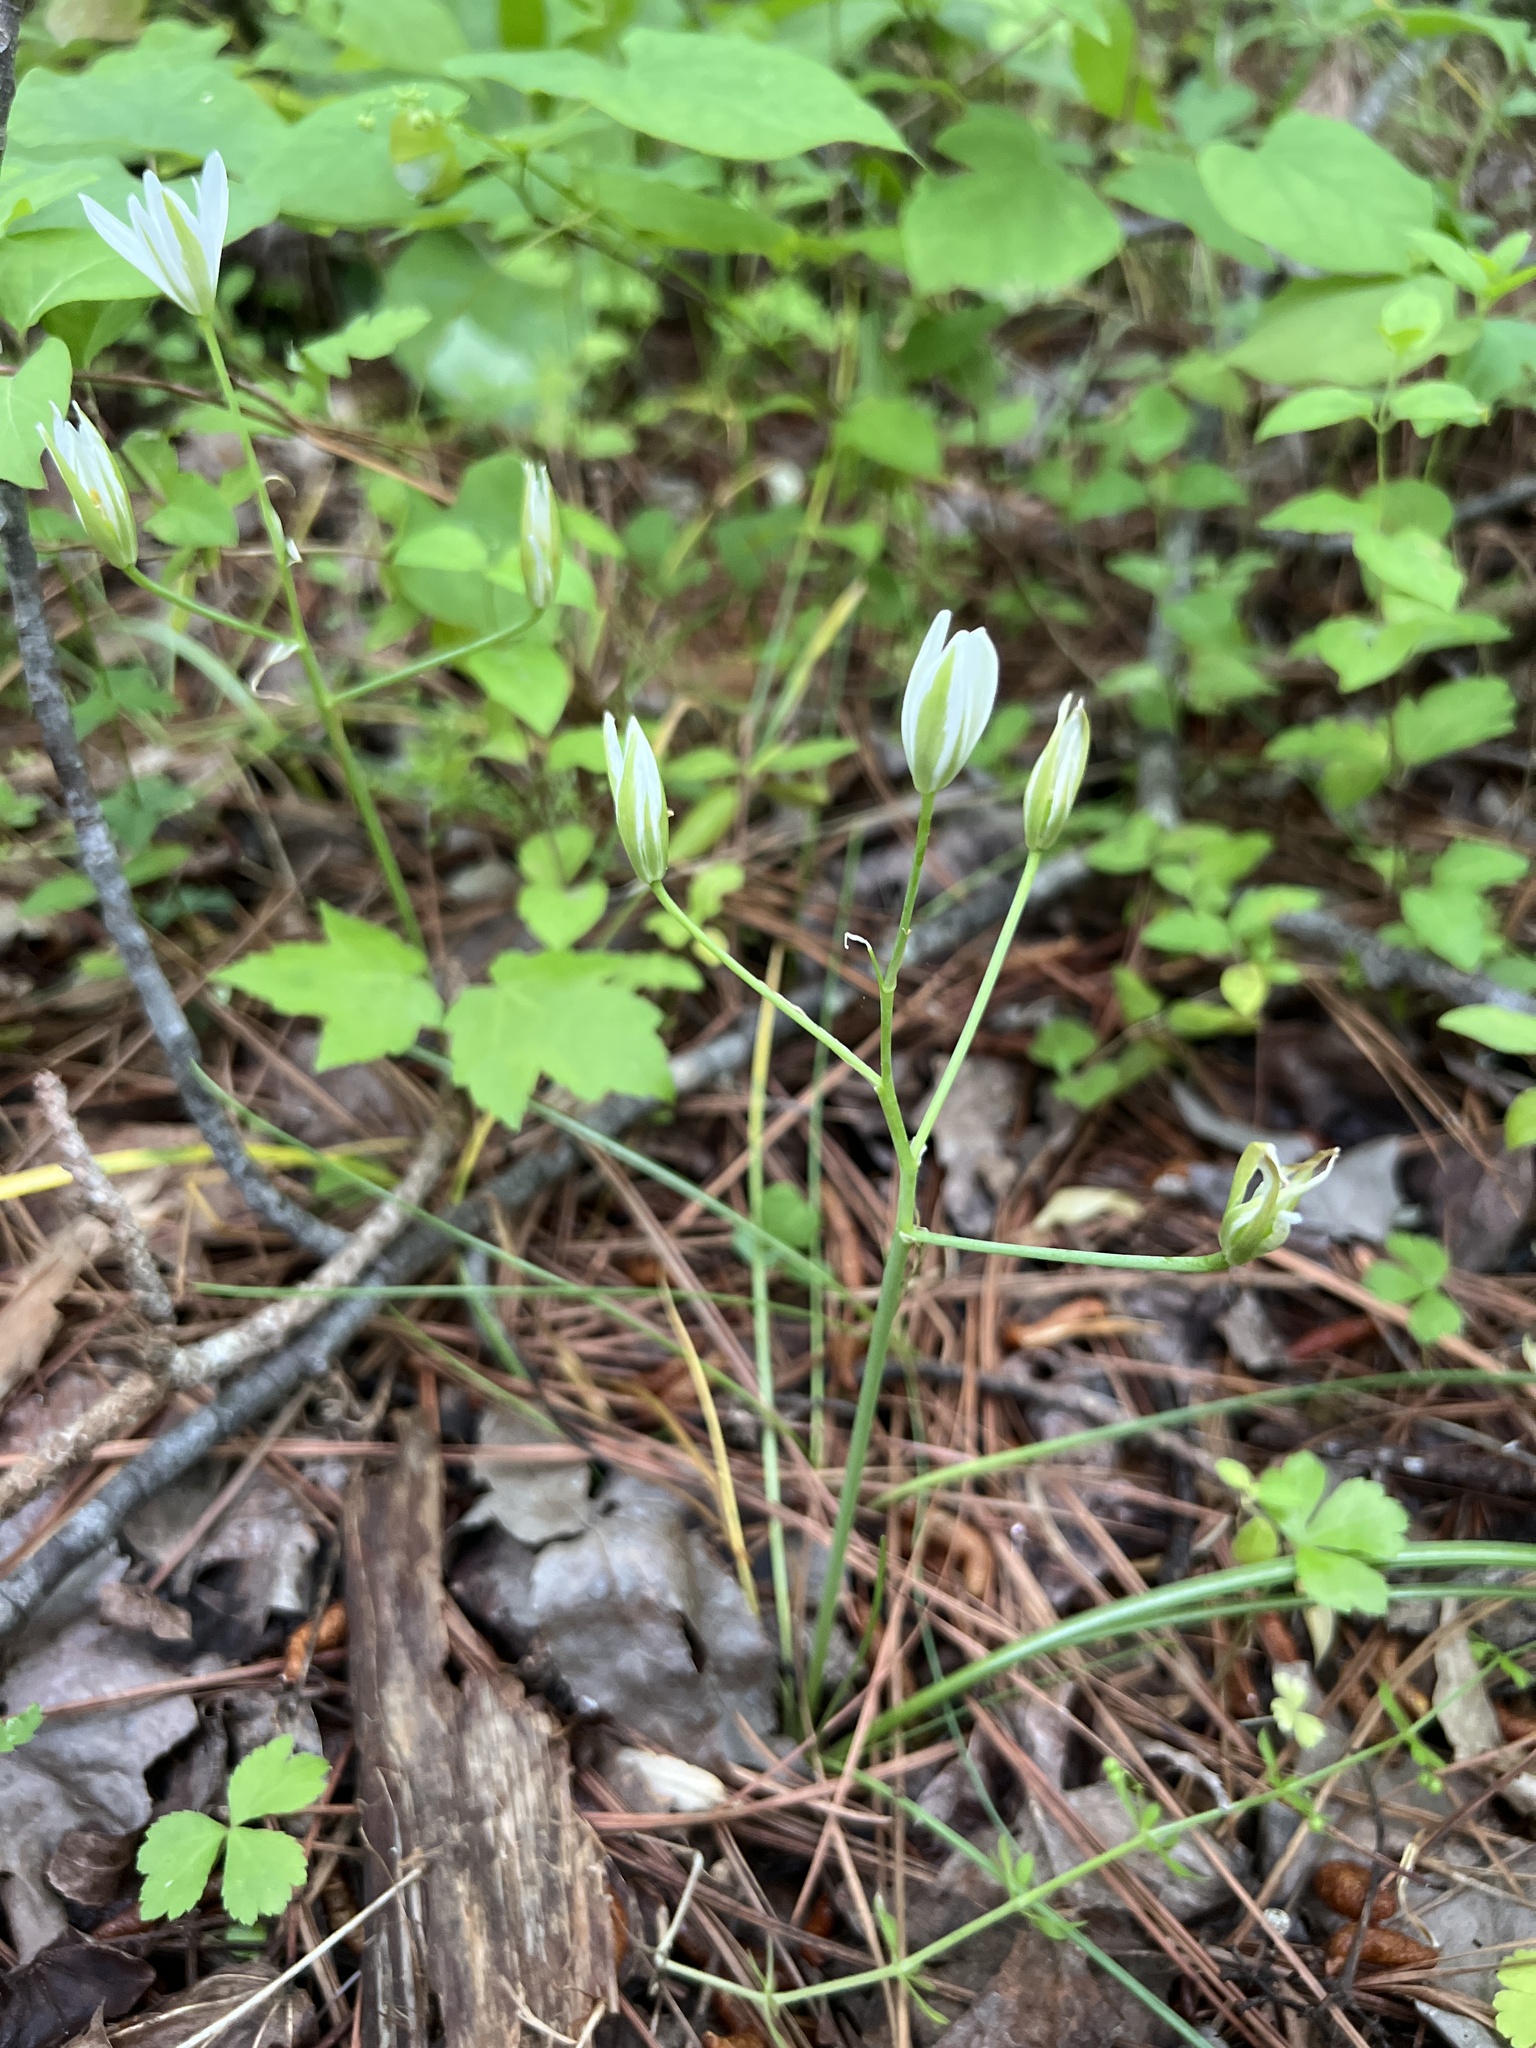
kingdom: Plantae
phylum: Tracheophyta
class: Liliopsida
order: Asparagales
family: Asparagaceae
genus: Ornithogalum
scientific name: Ornithogalum umbellatum
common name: Garden star-of-bethlehem
